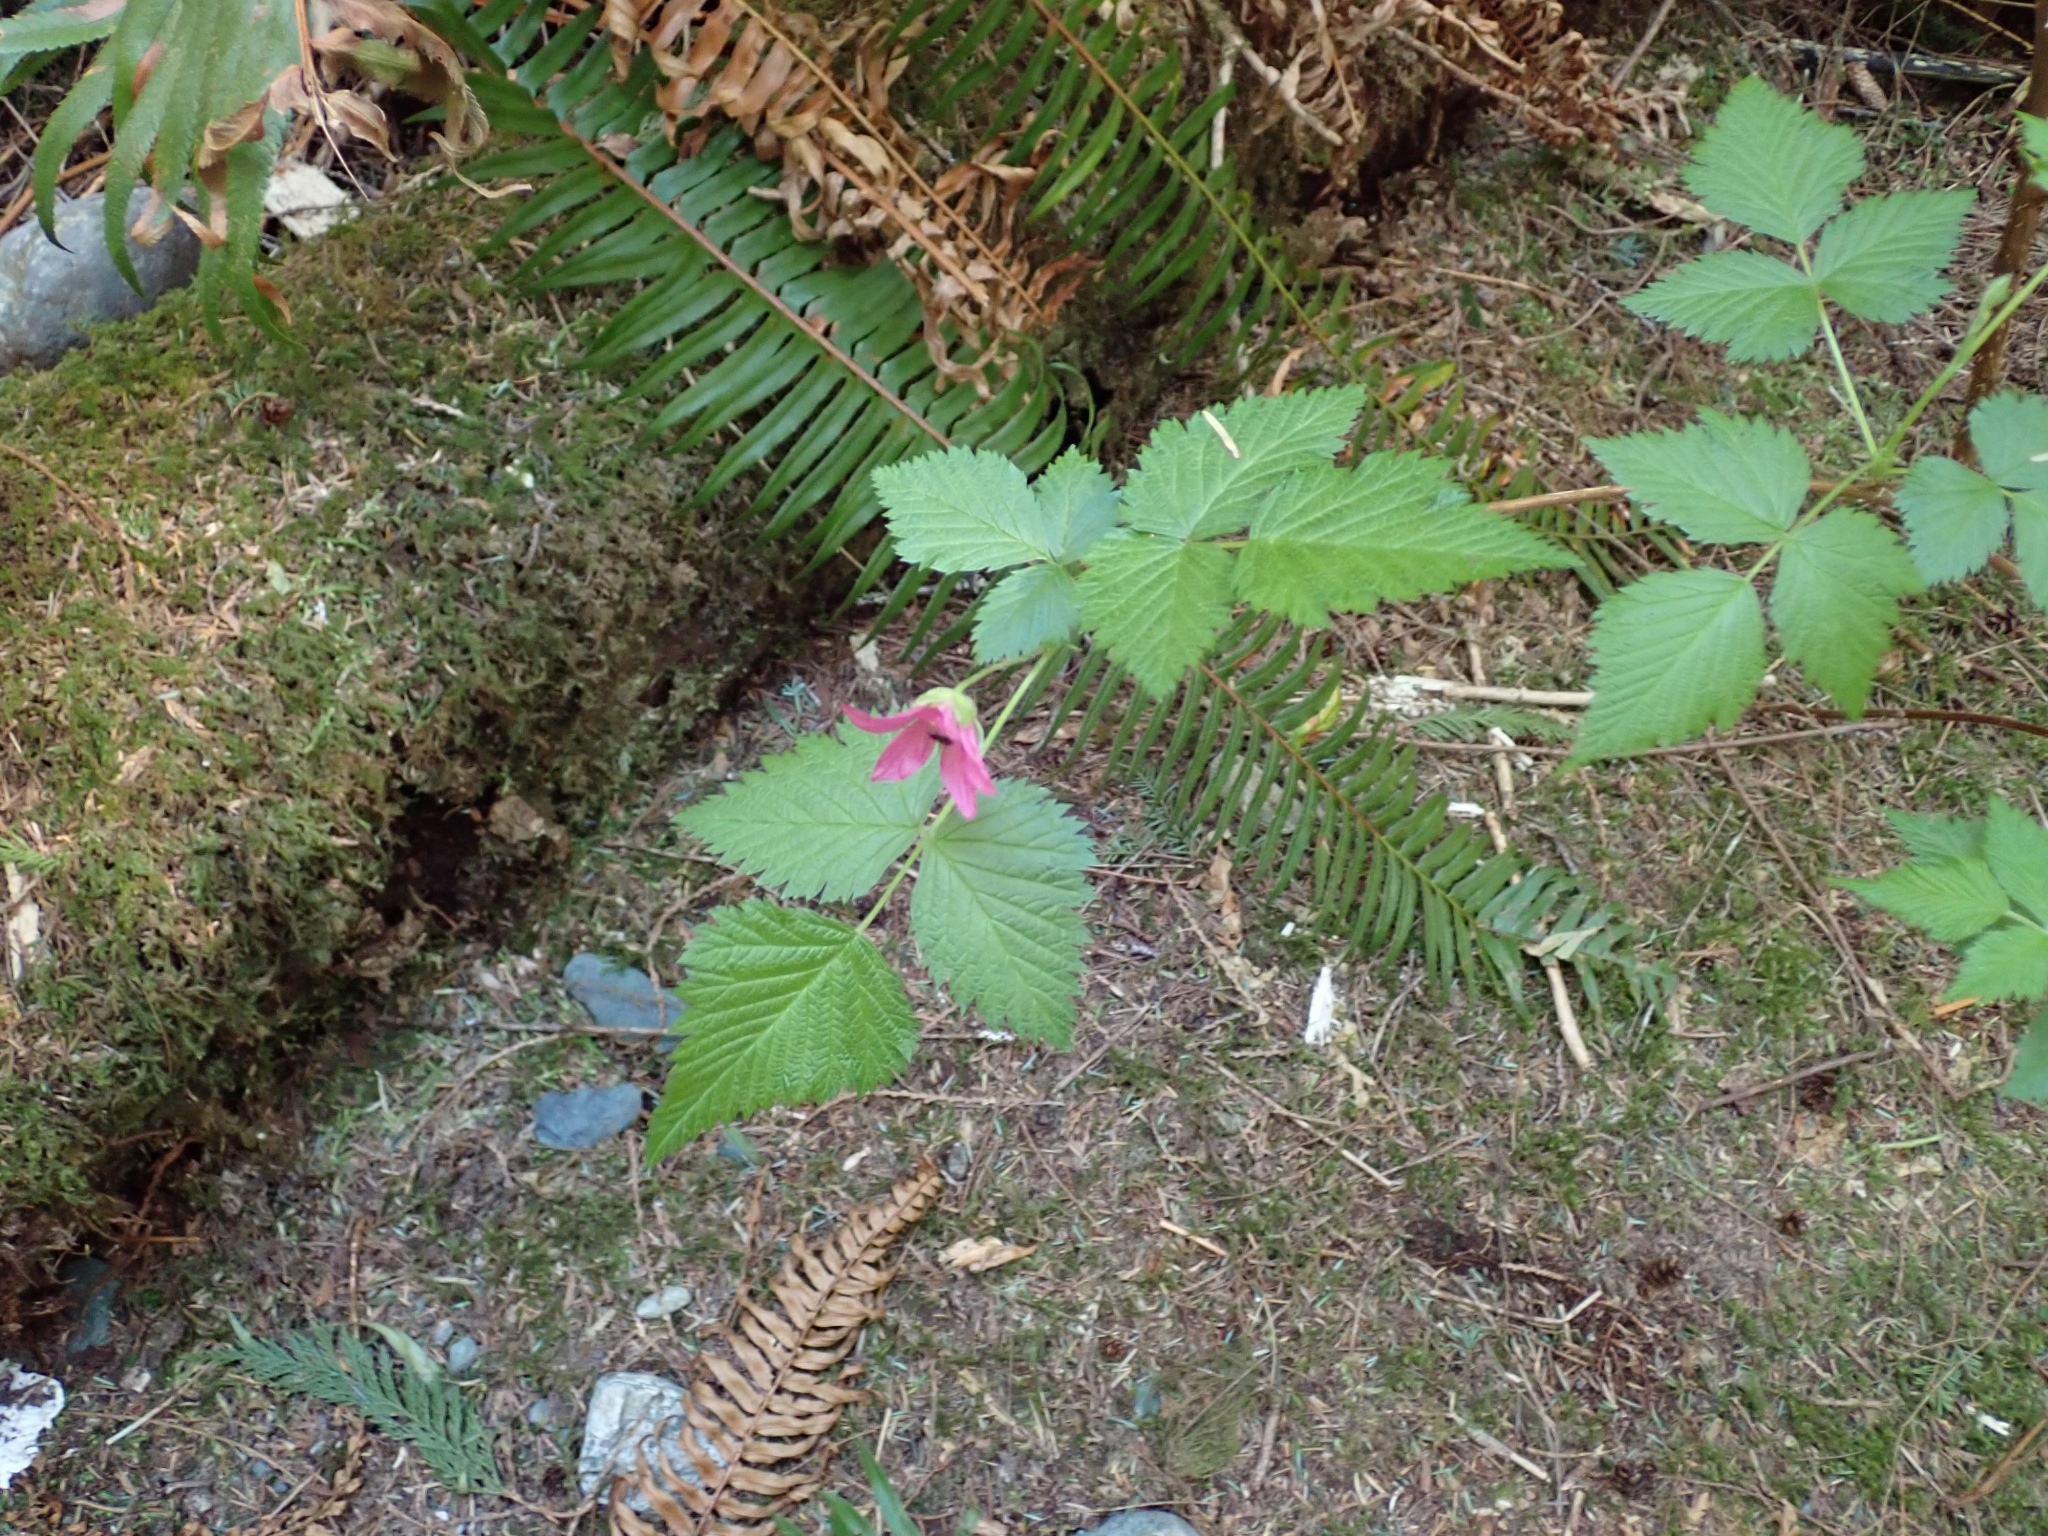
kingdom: Plantae
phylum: Tracheophyta
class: Magnoliopsida
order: Rosales
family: Rosaceae
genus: Rubus
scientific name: Rubus spectabilis
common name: Salmonberry
